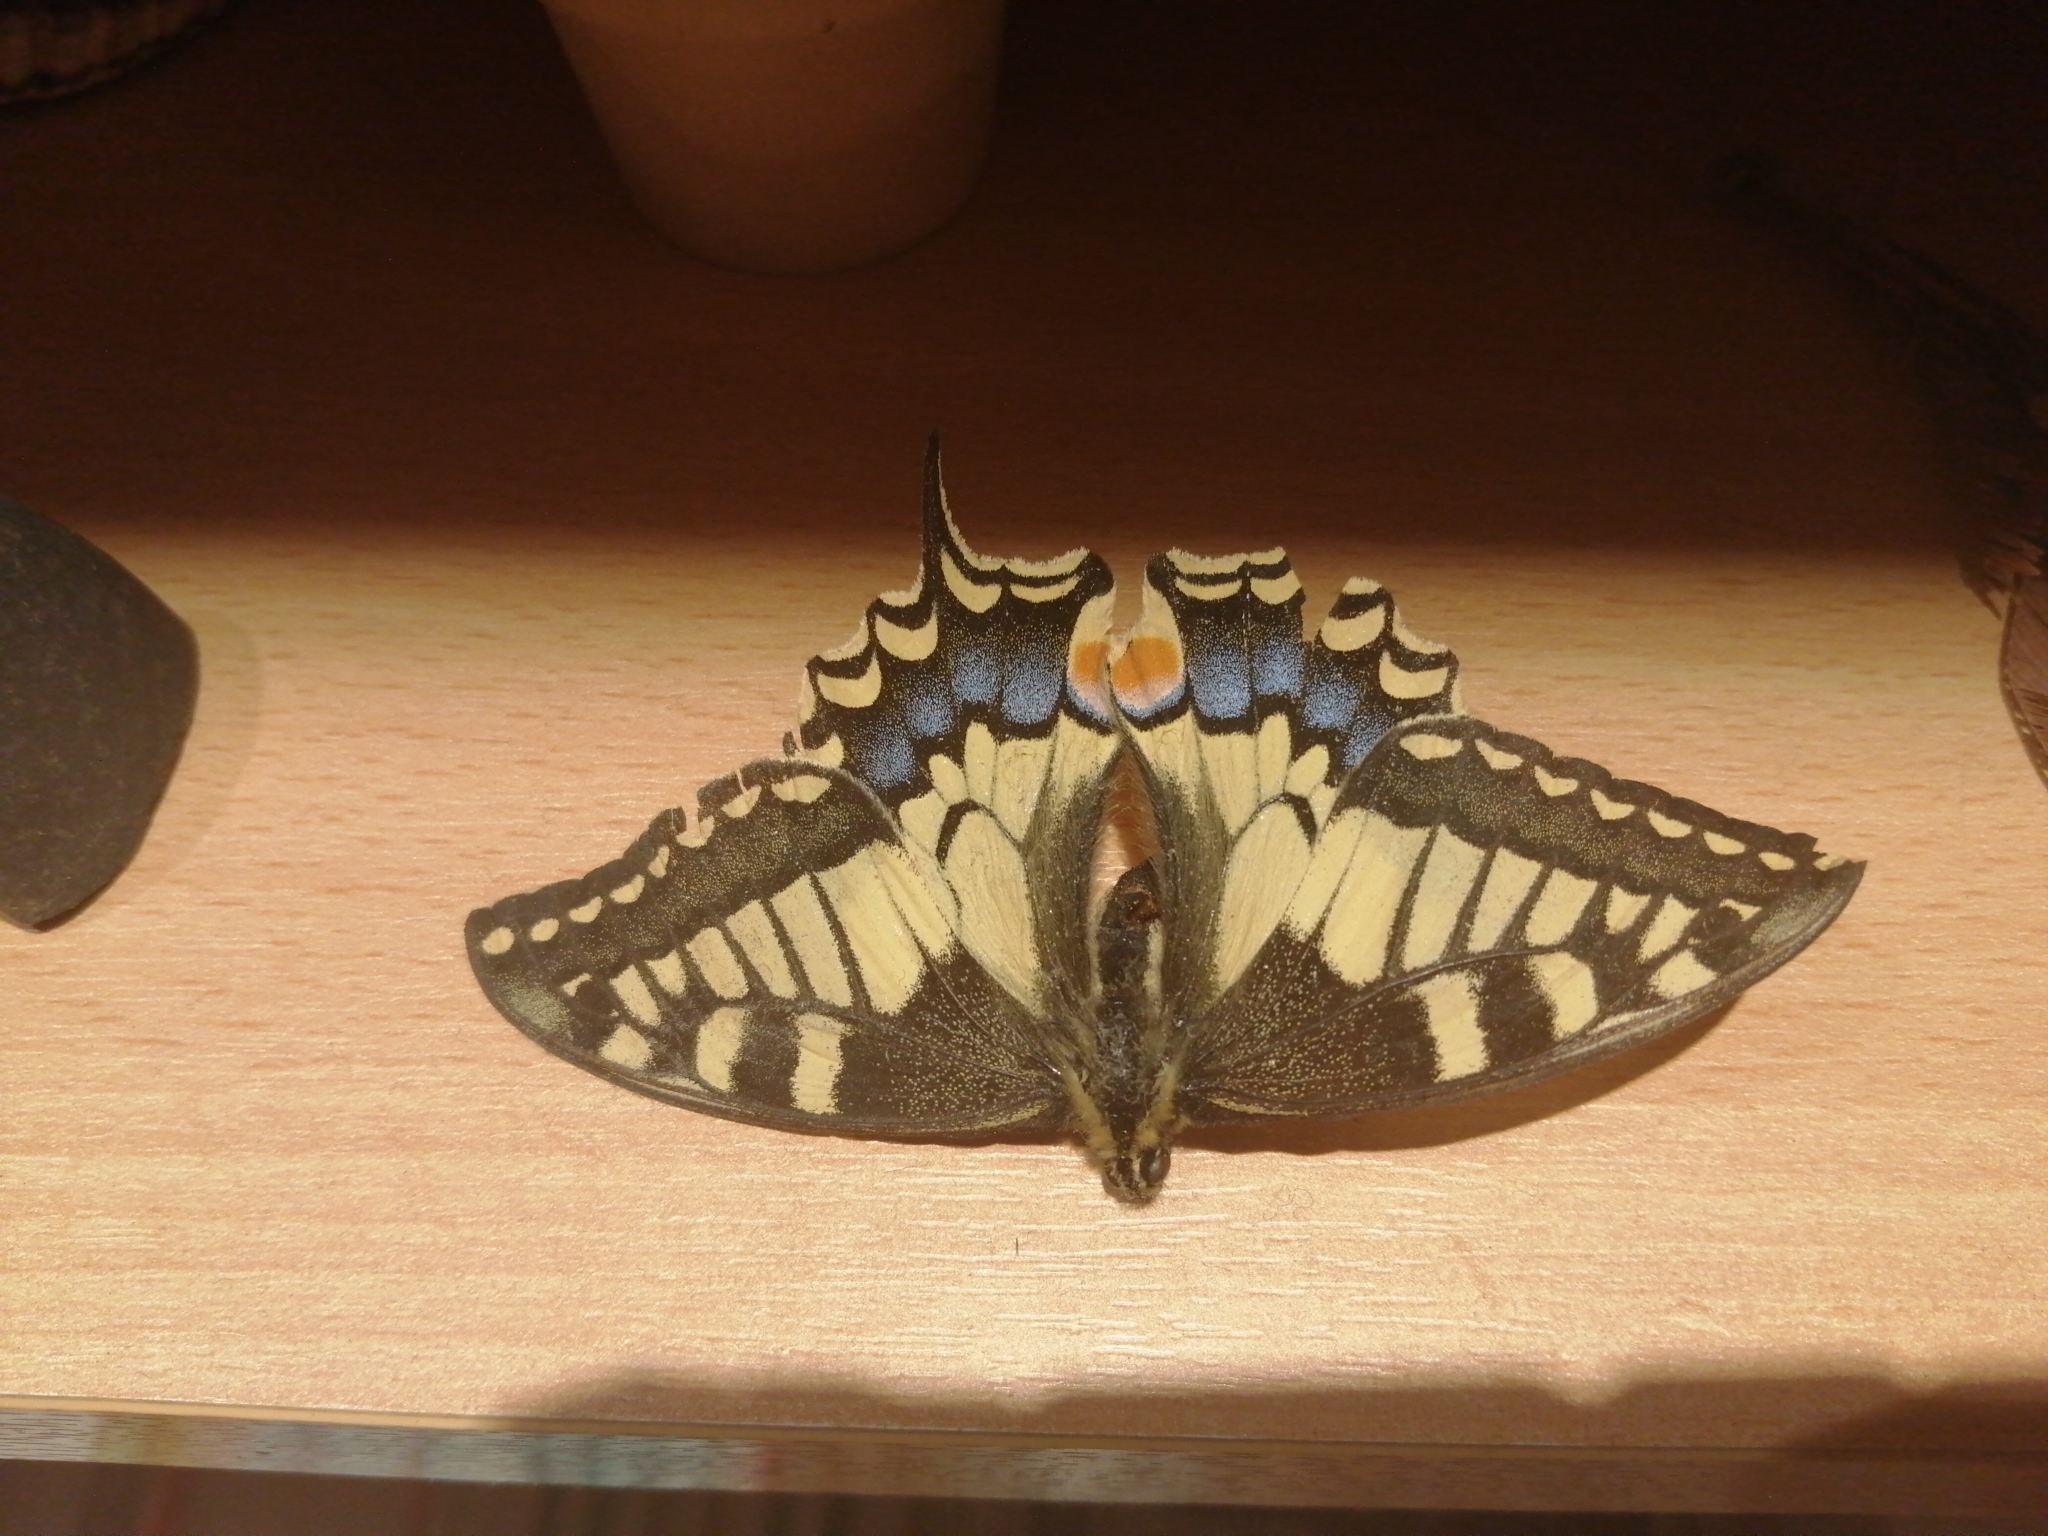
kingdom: Animalia
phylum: Arthropoda
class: Insecta
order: Lepidoptera
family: Papilionidae
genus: Papilio
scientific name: Papilio machaon
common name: Swallowtail
